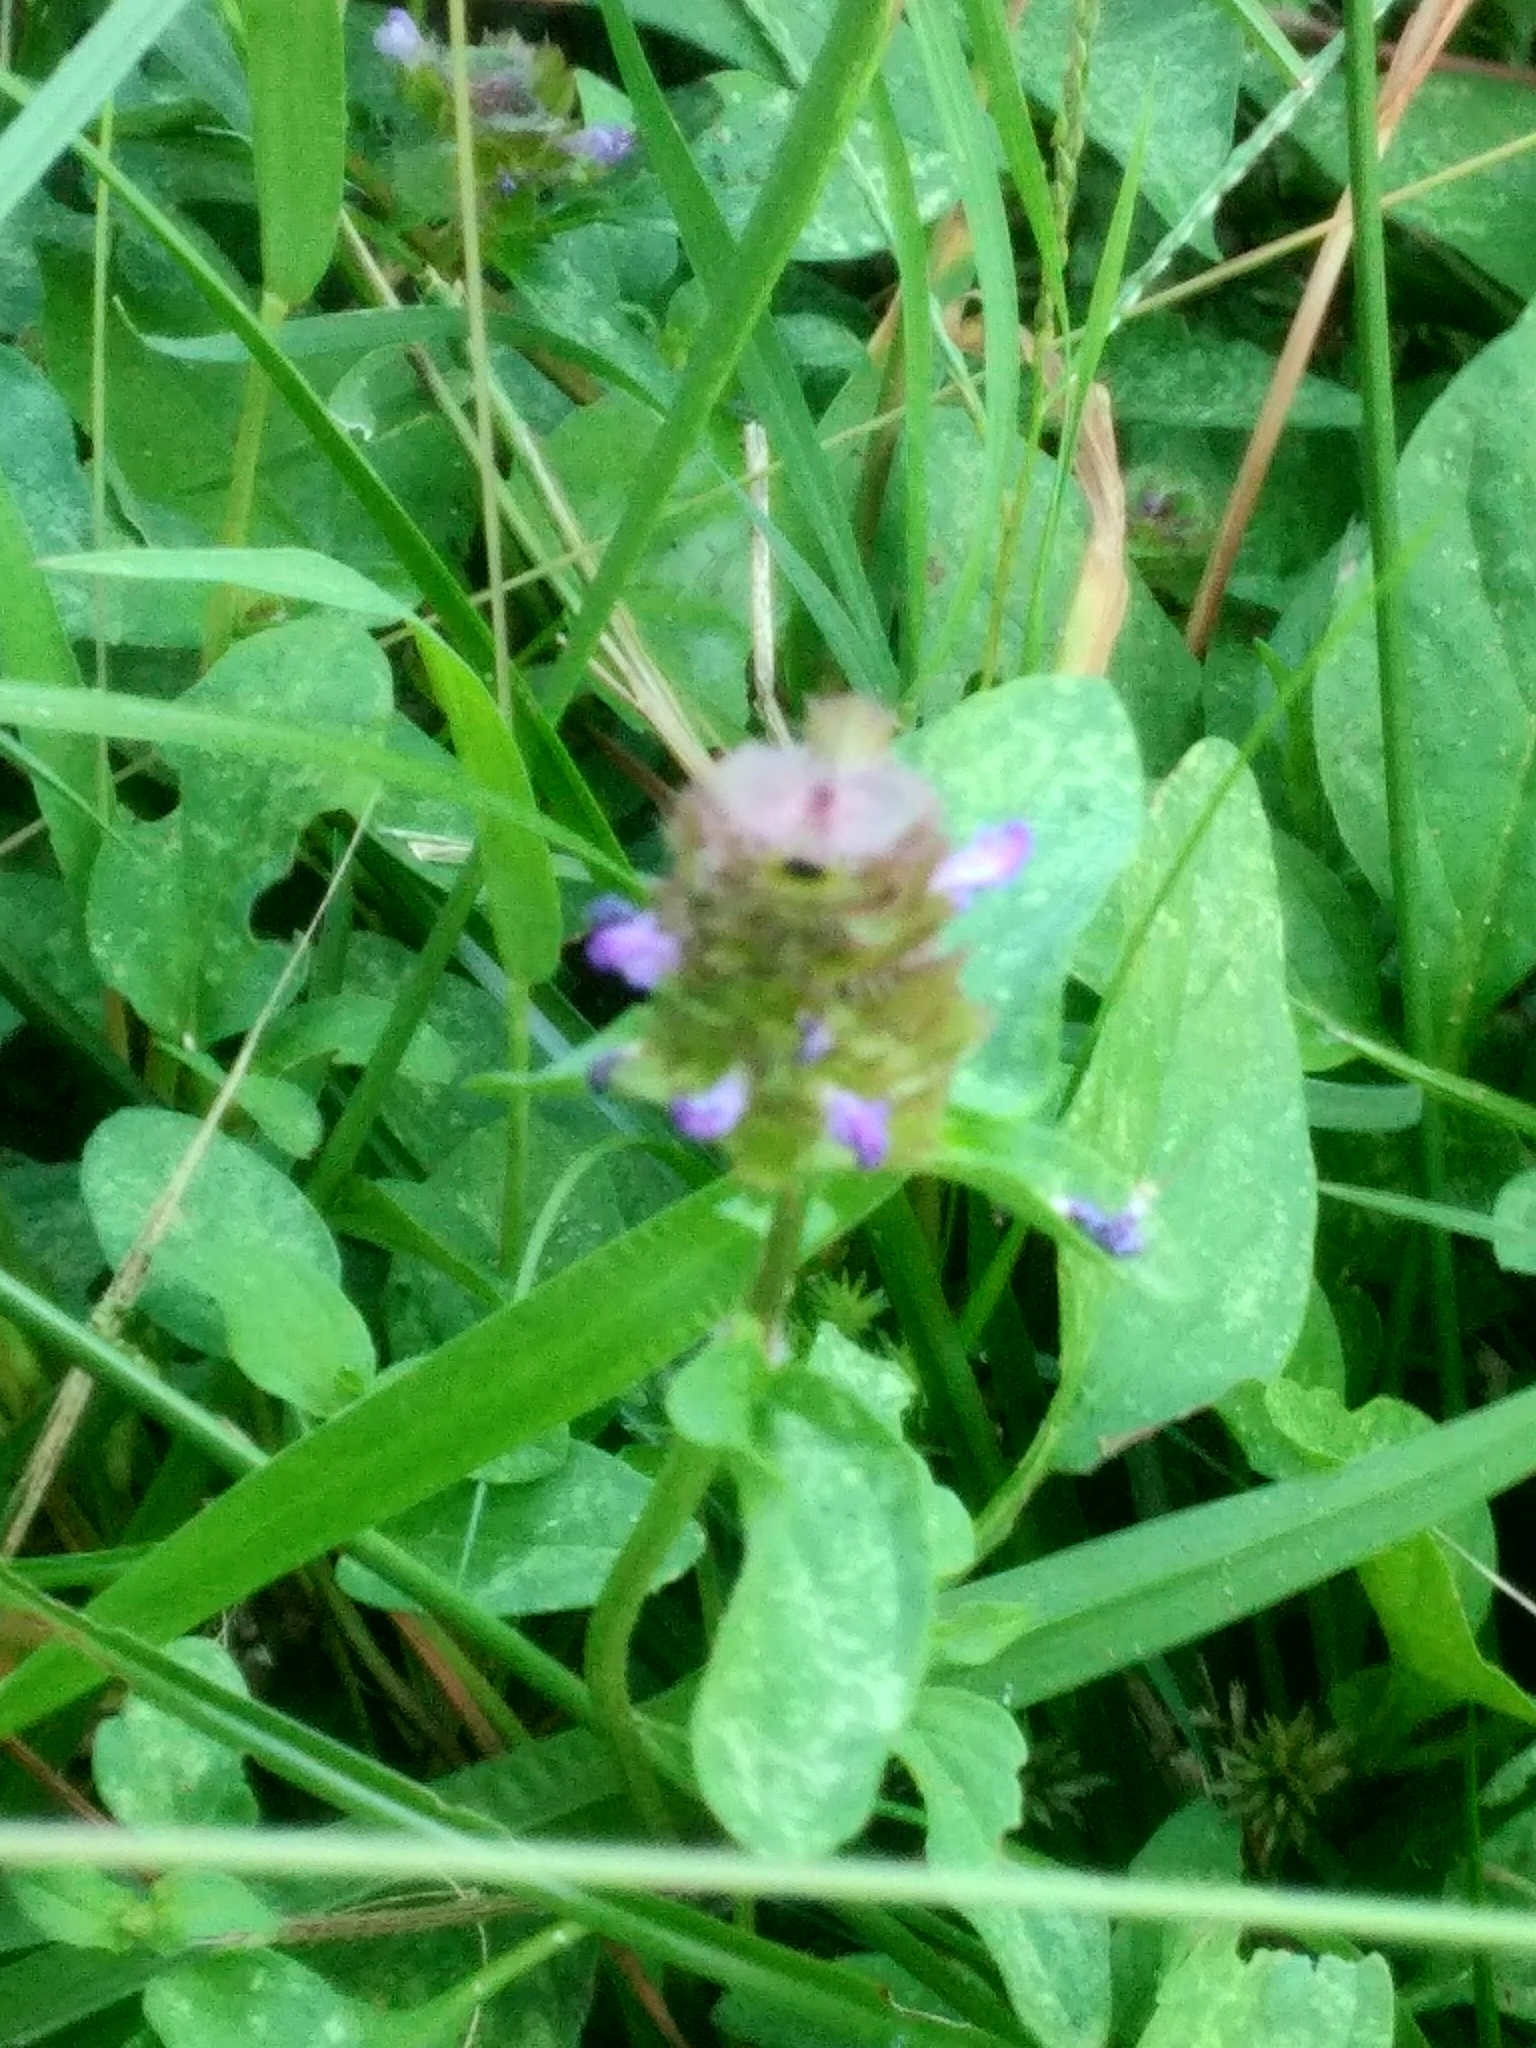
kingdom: Plantae
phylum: Tracheophyta
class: Magnoliopsida
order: Lamiales
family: Lamiaceae
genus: Prunella
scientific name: Prunella vulgaris
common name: Heal-all
